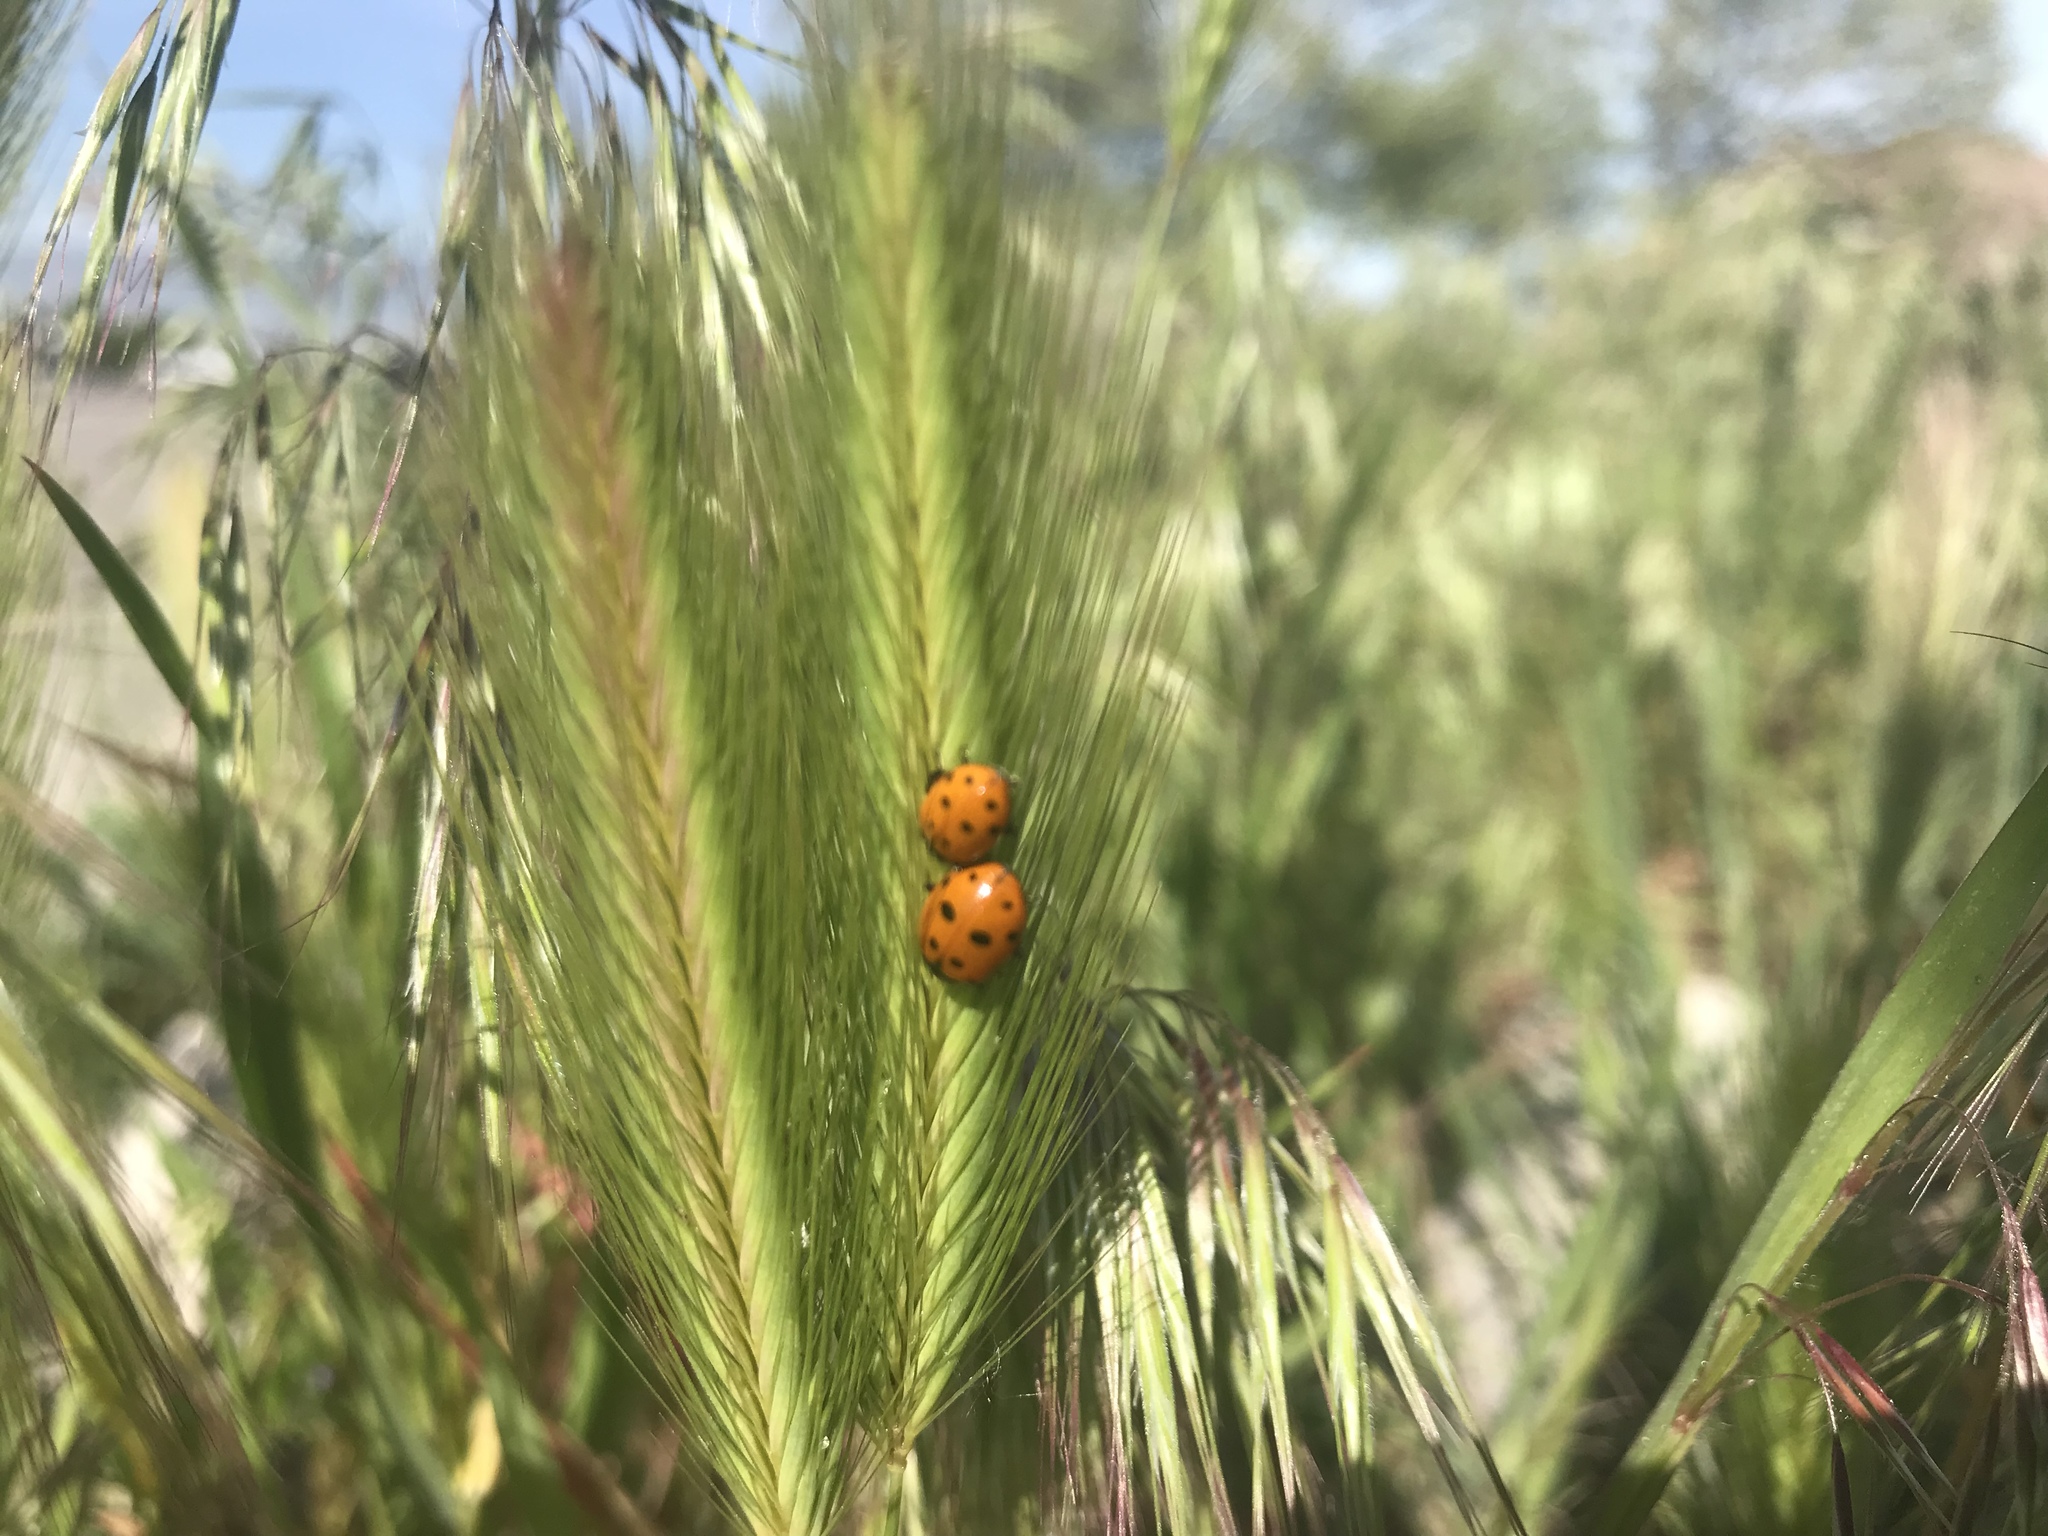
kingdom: Animalia
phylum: Arthropoda
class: Insecta
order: Coleoptera
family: Coccinellidae
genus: Hippodamia
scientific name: Hippodamia convergens
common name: Convergent lady beetle
